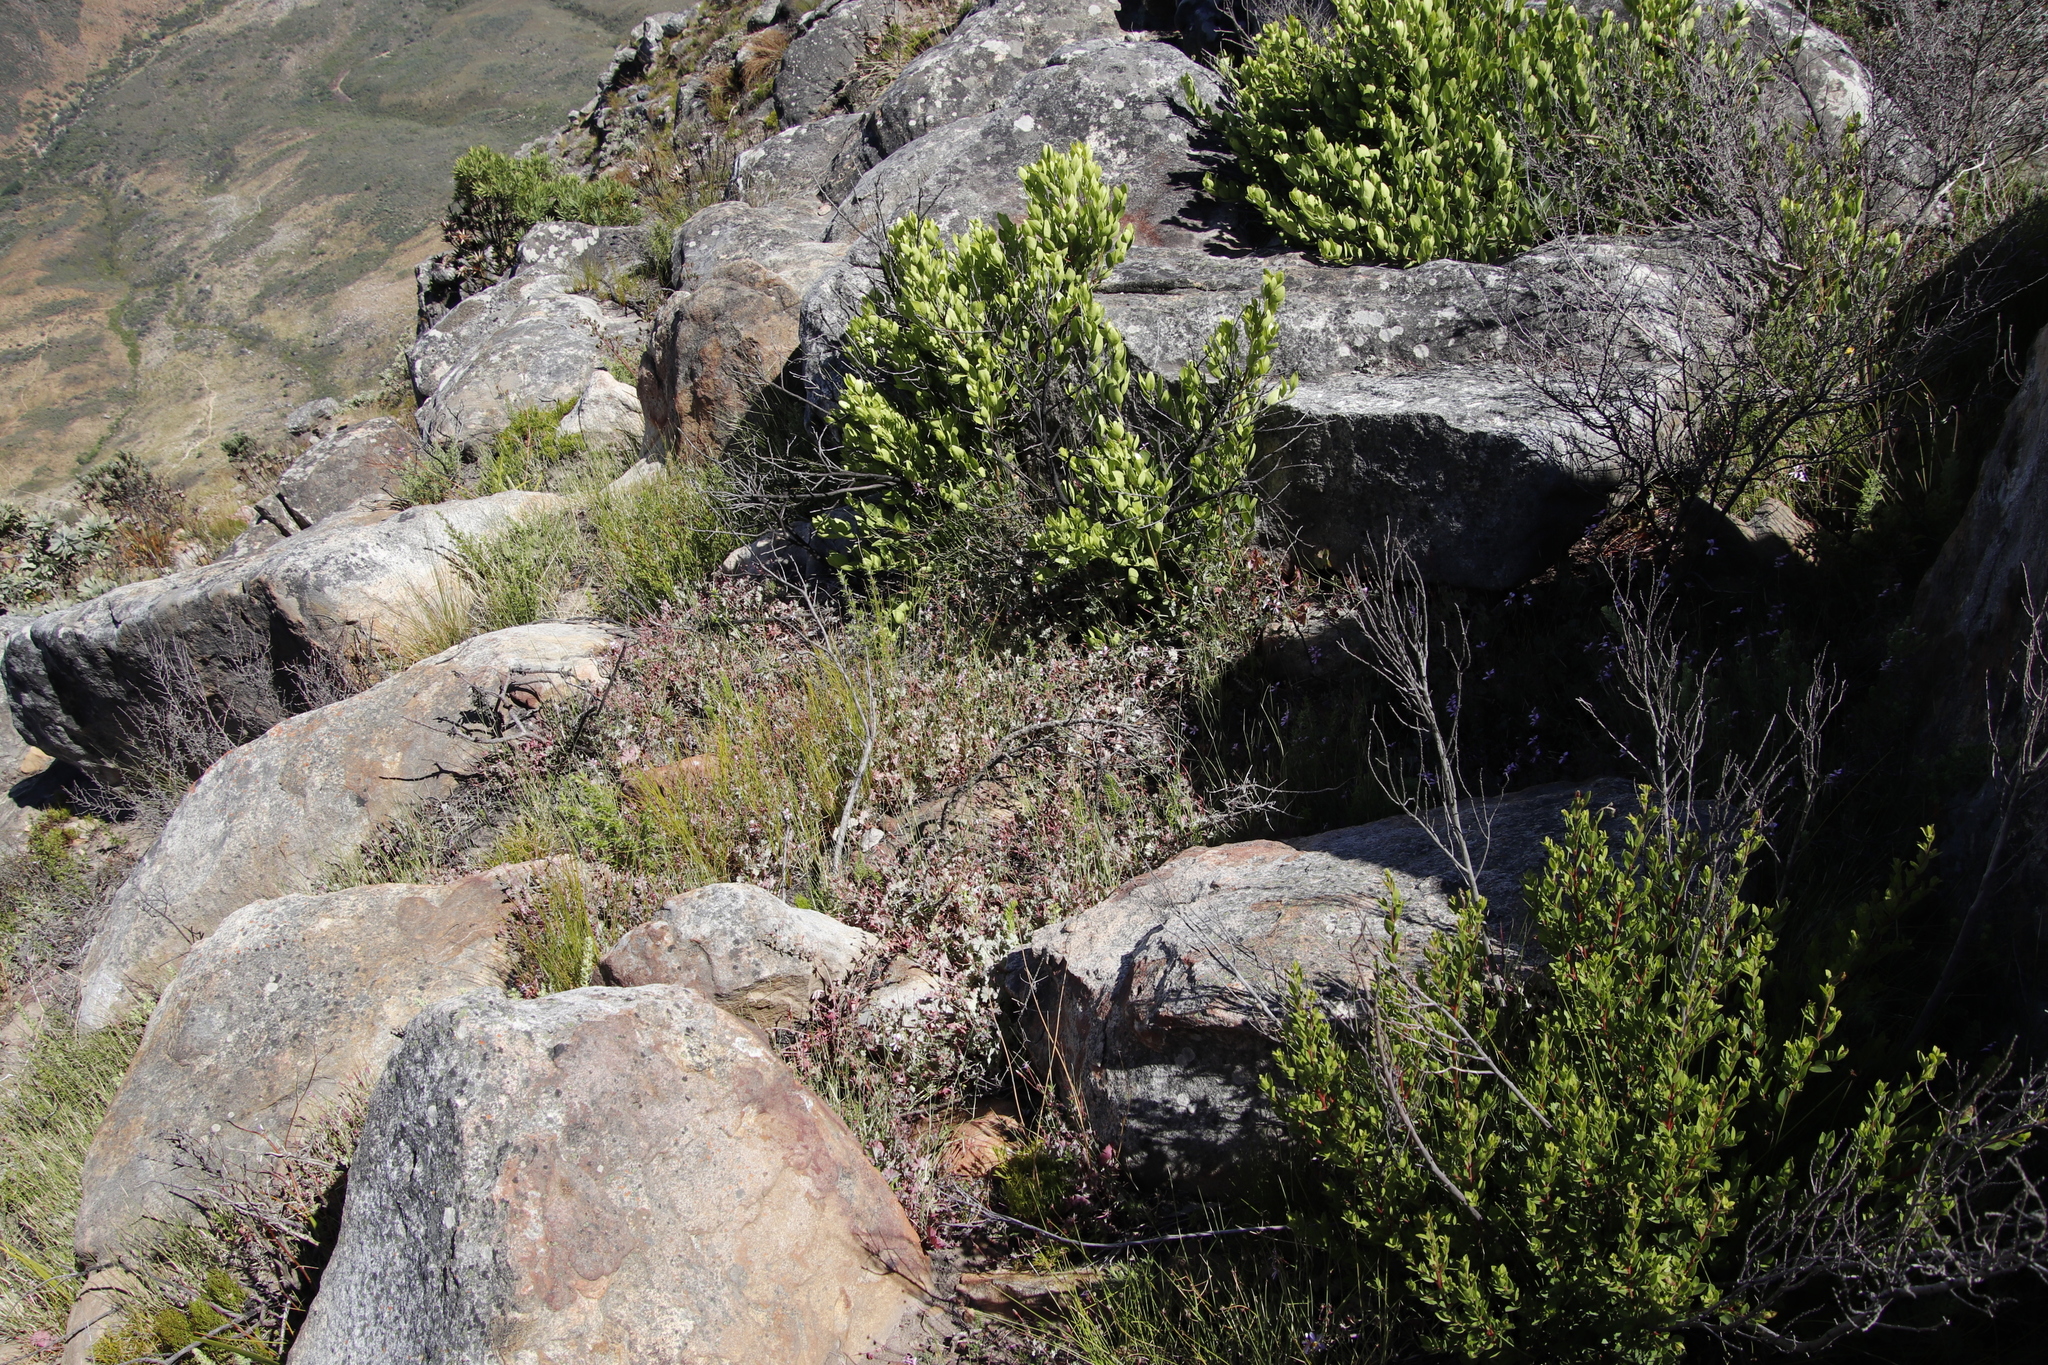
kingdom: Plantae
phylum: Tracheophyta
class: Magnoliopsida
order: Ericales
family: Ebenaceae
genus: Diospyros
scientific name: Diospyros glabra
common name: Fynbos star apple
